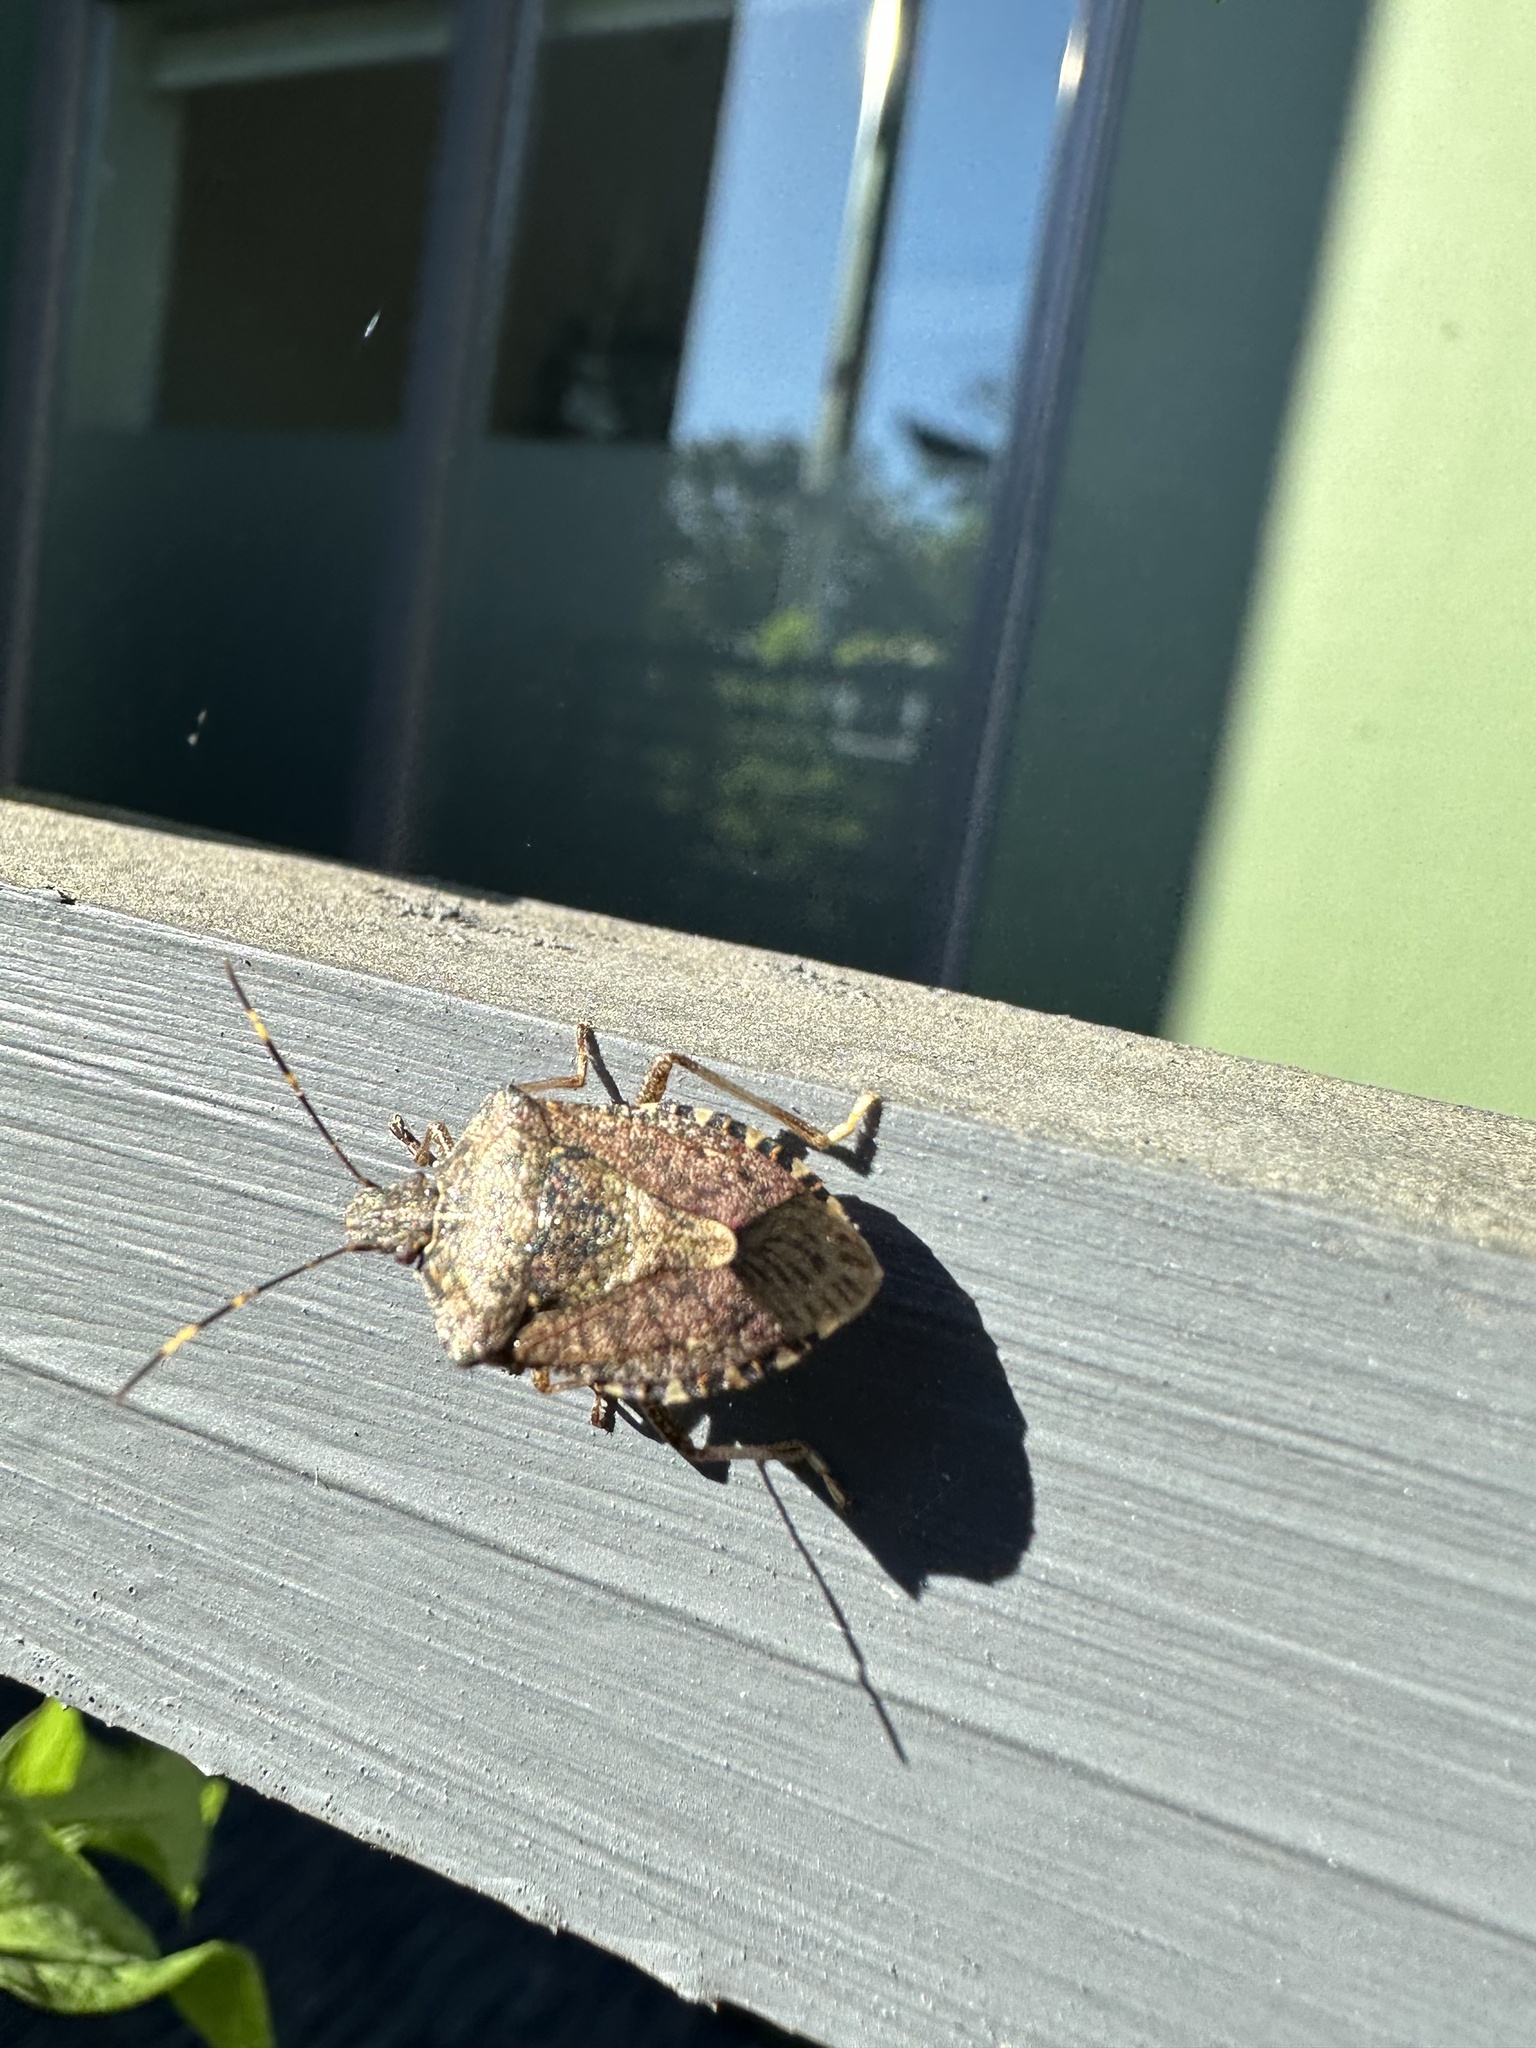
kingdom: Animalia
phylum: Arthropoda
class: Insecta
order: Hemiptera
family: Pentatomidae
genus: Halyomorpha
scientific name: Halyomorpha halys
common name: Brown marmorated stink bug
